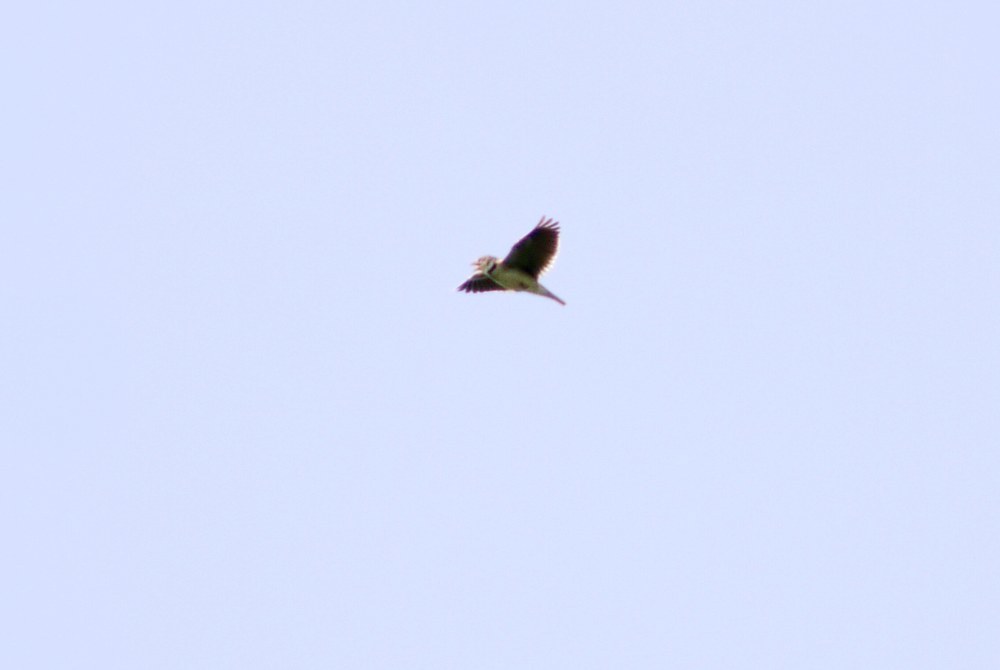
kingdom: Animalia
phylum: Chordata
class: Aves
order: Passeriformes
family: Alaudidae
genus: Melanocorypha
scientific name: Melanocorypha calandra
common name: Calandra lark
